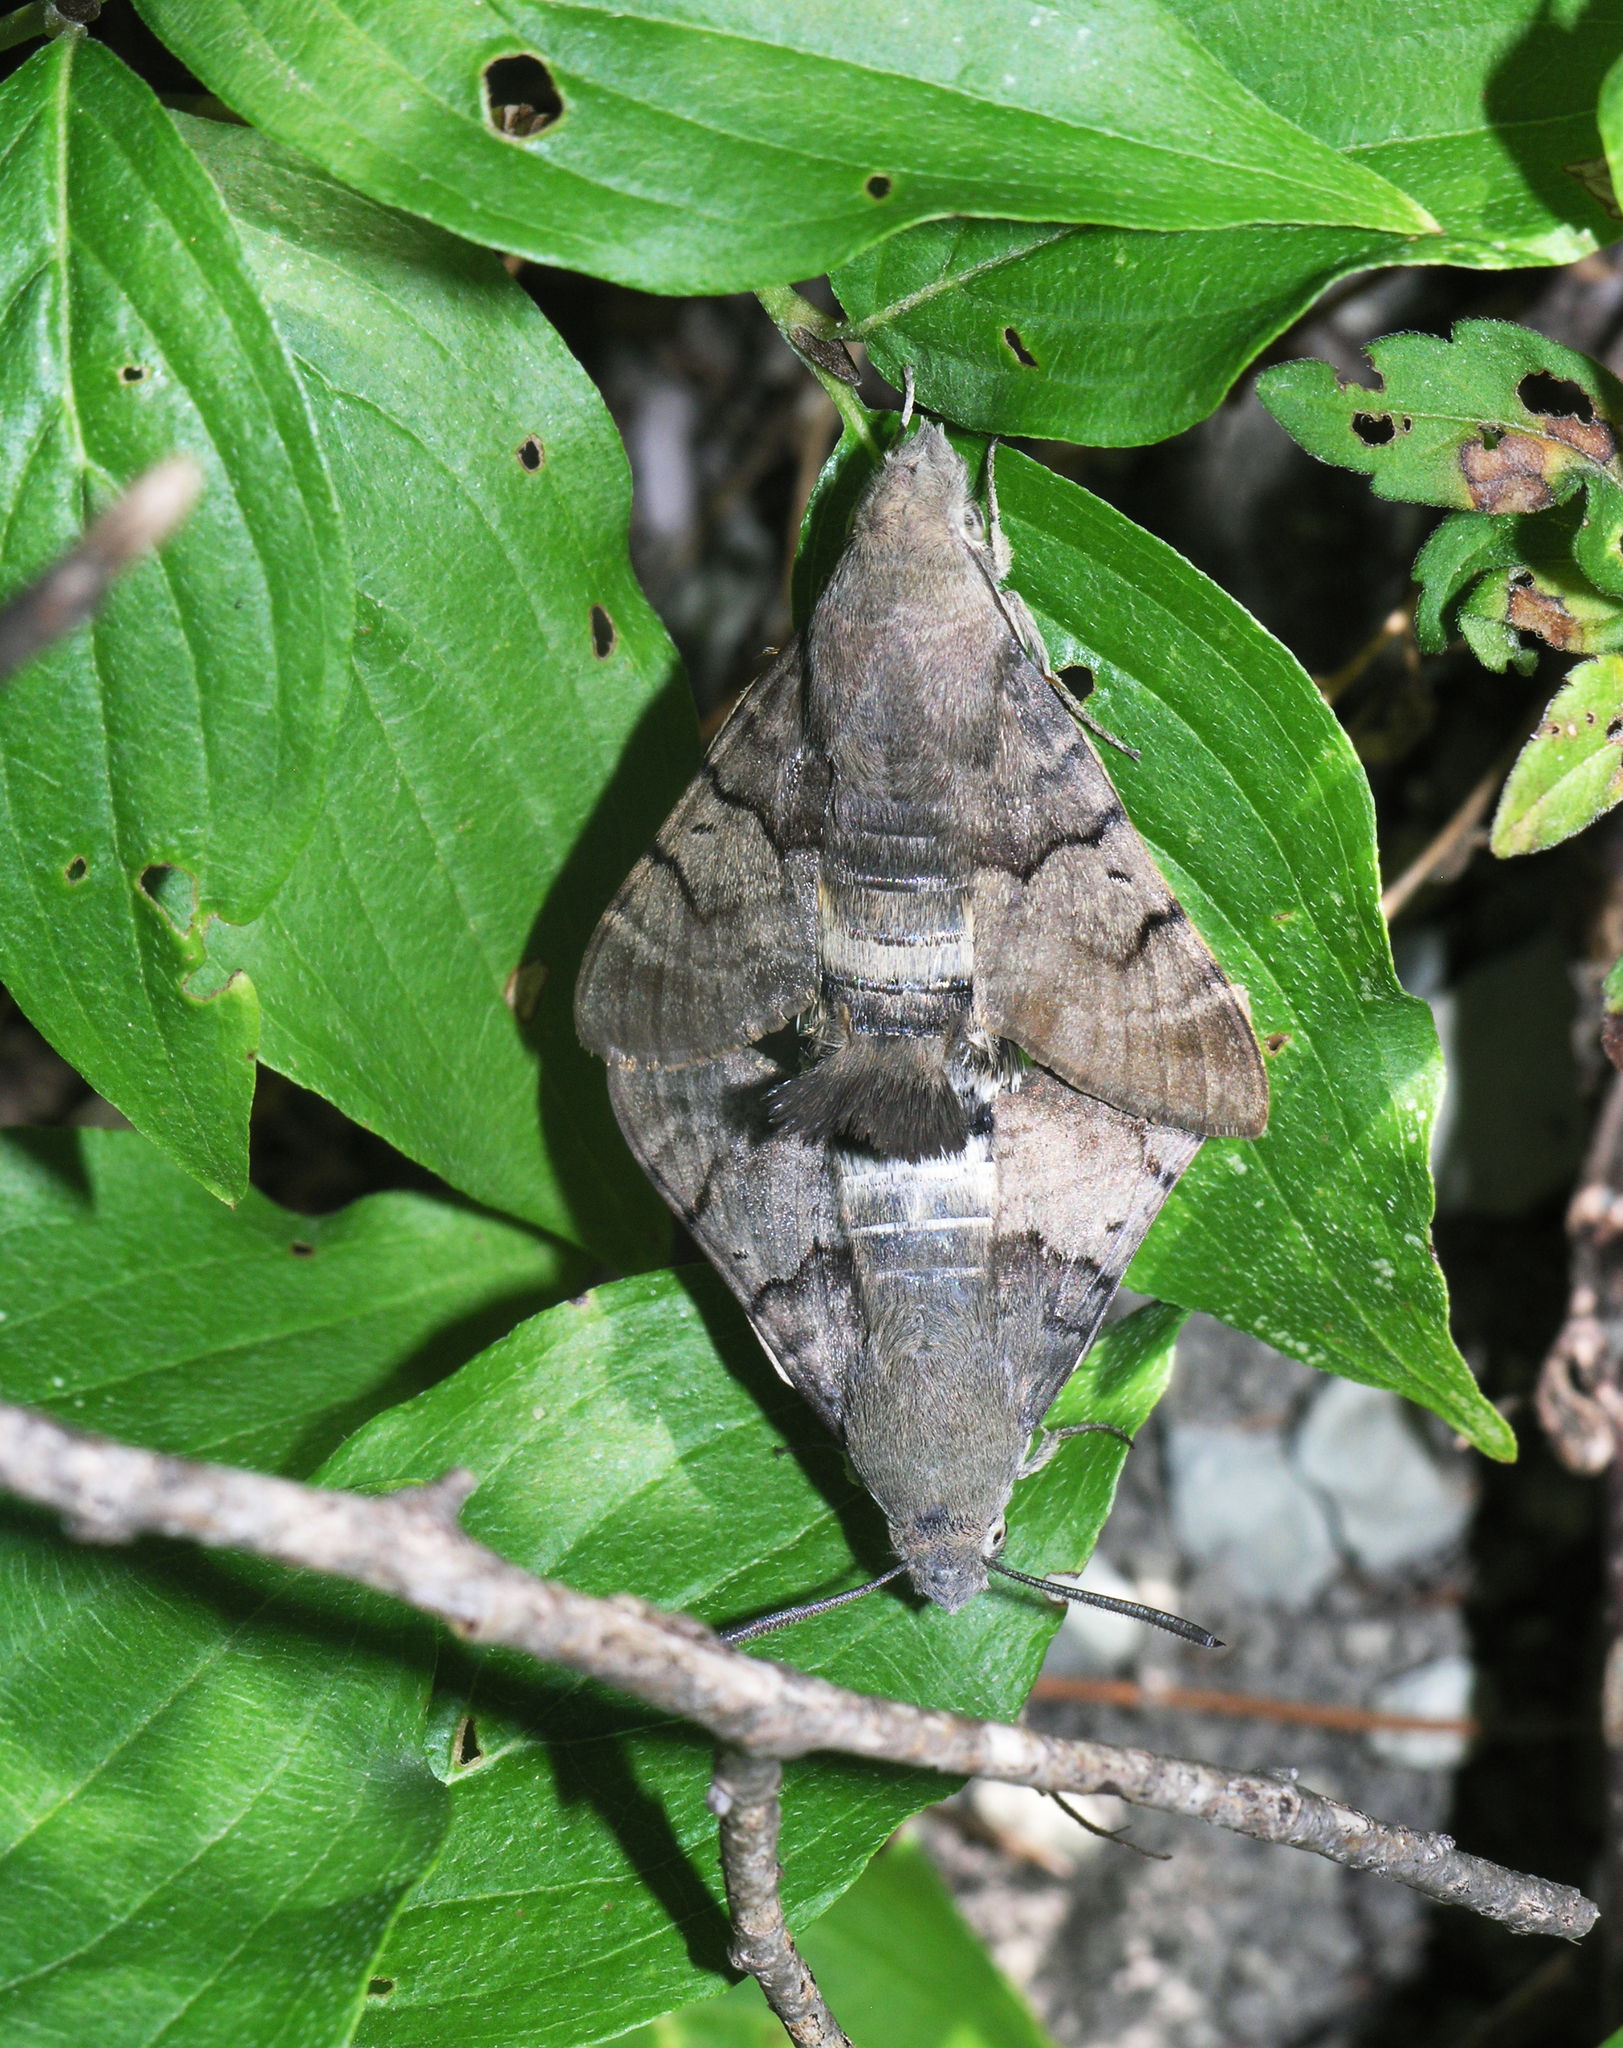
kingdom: Animalia
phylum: Arthropoda
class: Insecta
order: Lepidoptera
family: Sphingidae
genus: Macroglossum
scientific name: Macroglossum stellatarum
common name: Humming-bird hawk-moth
